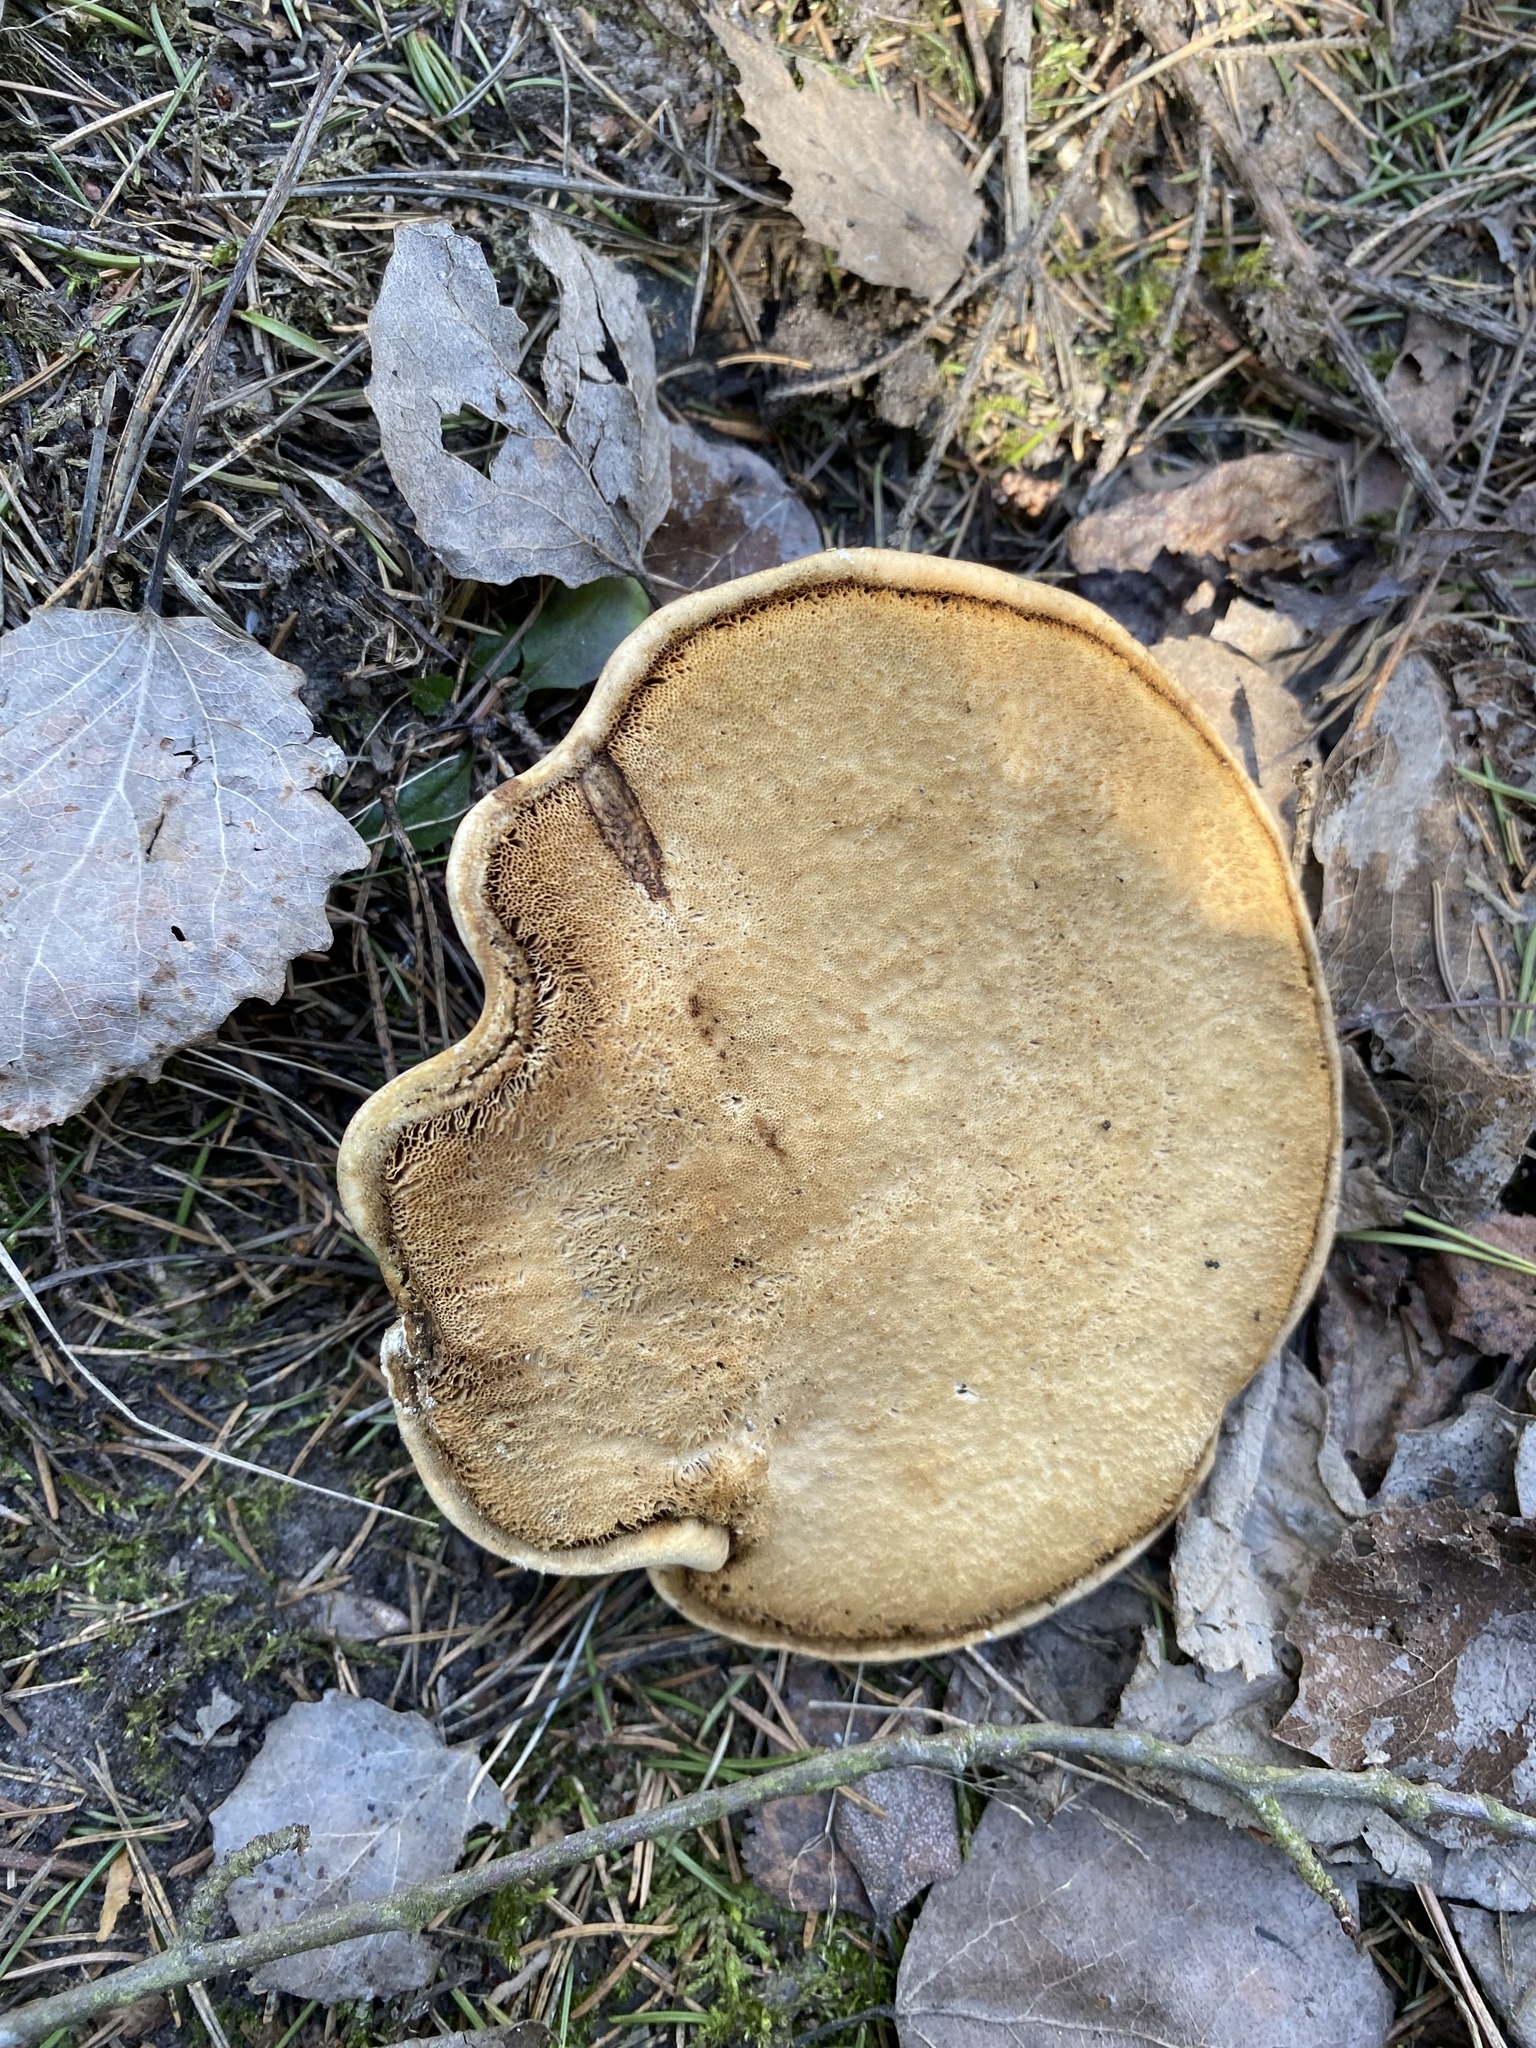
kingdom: Fungi
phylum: Basidiomycota
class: Agaricomycetes
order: Polyporales
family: Fomitopsidaceae
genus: Fomitopsis
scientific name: Fomitopsis betulina
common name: Birch polypore
